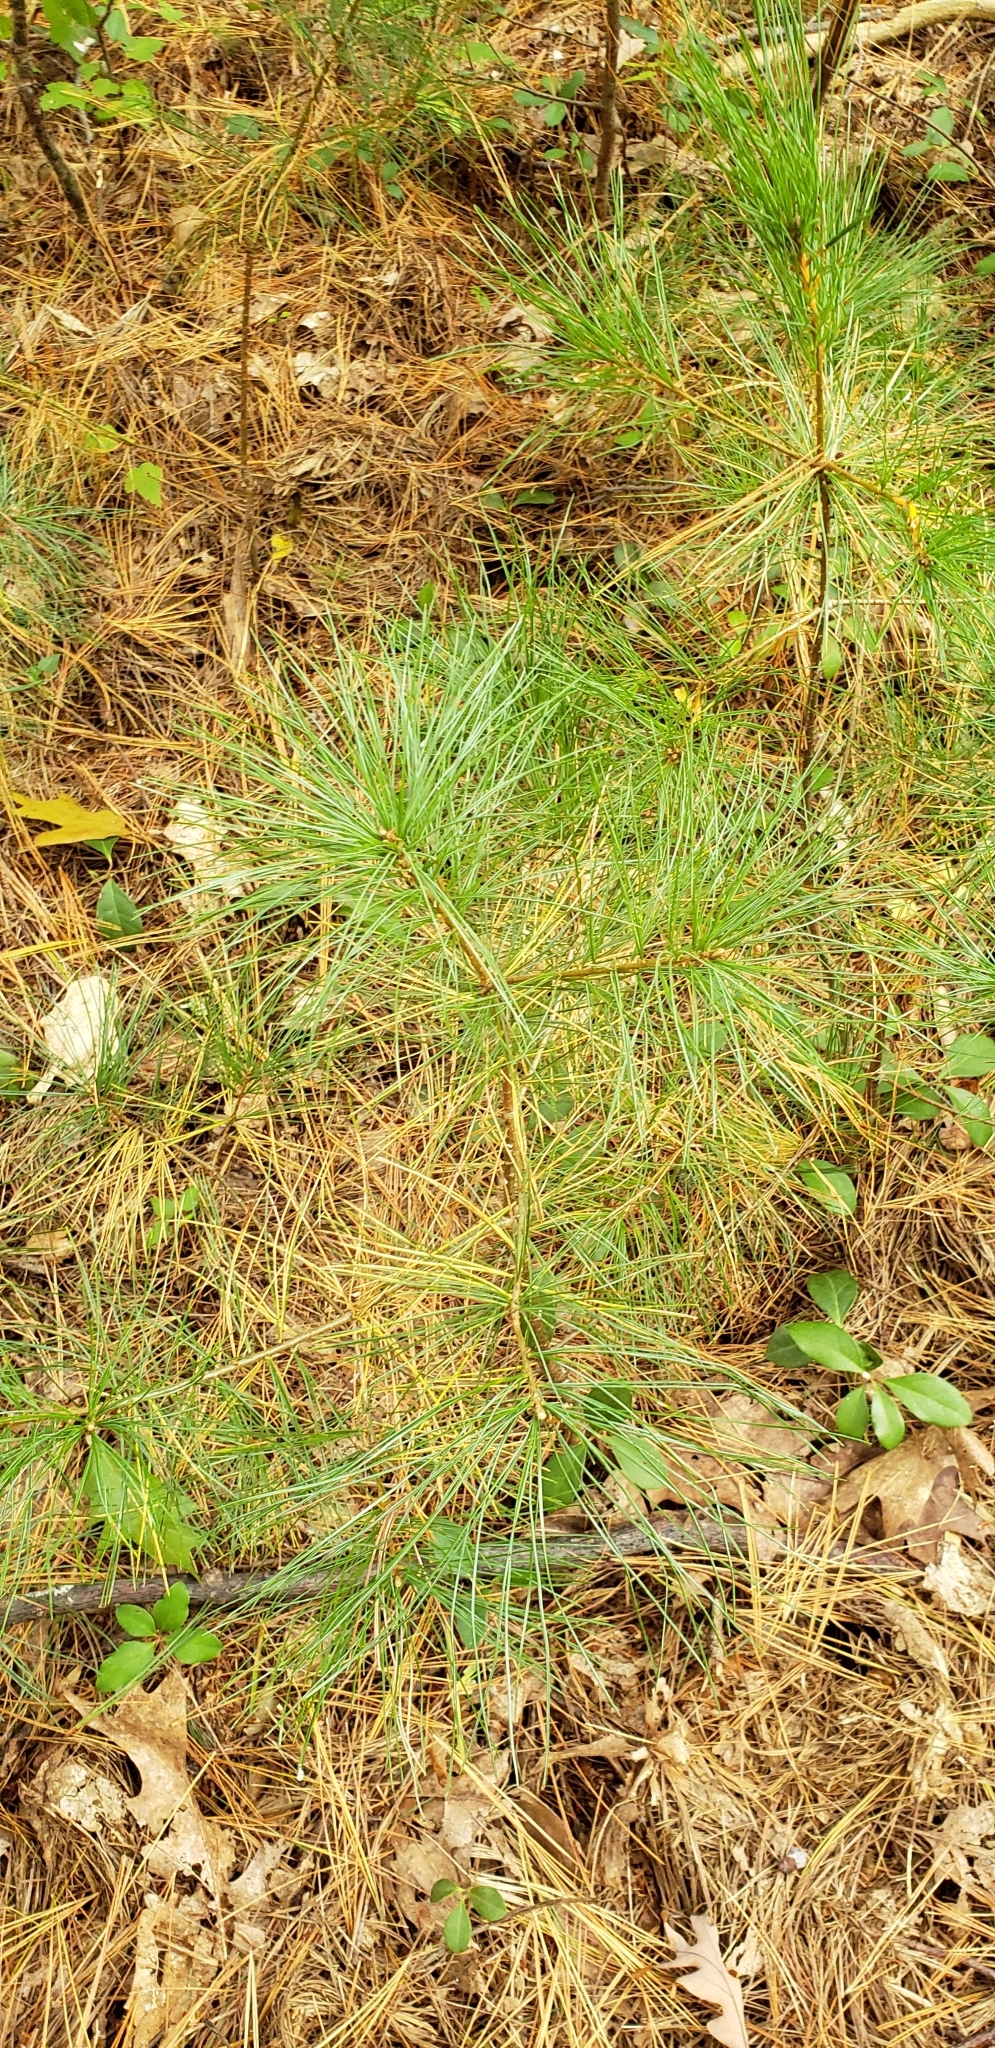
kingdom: Plantae
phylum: Tracheophyta
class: Pinopsida
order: Pinales
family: Pinaceae
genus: Pinus
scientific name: Pinus strobus
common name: Weymouth pine
